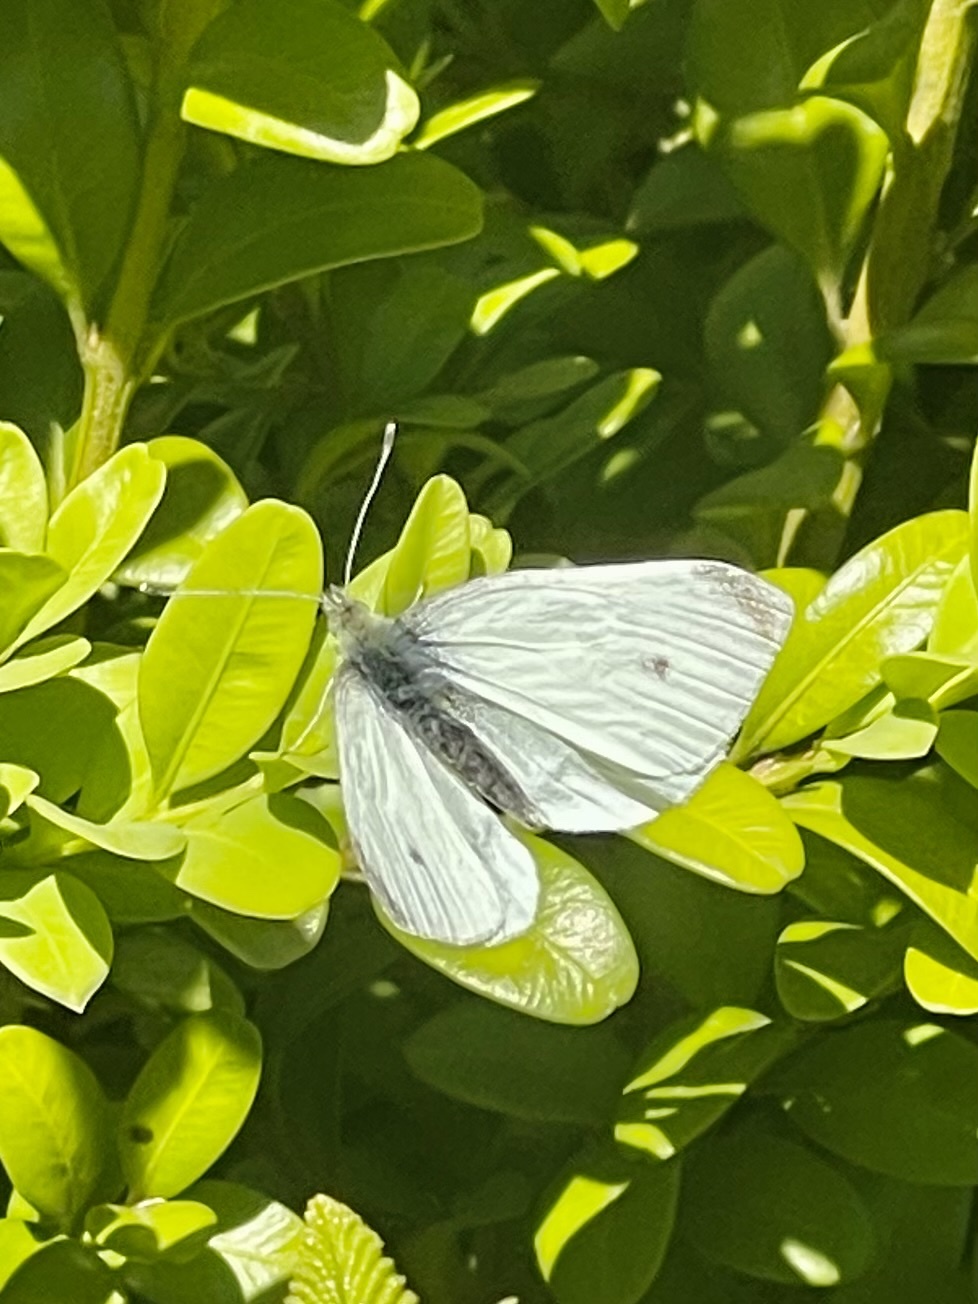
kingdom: Animalia
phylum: Arthropoda
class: Insecta
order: Lepidoptera
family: Pieridae
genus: Pieris
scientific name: Pieris rapae
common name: Small white
